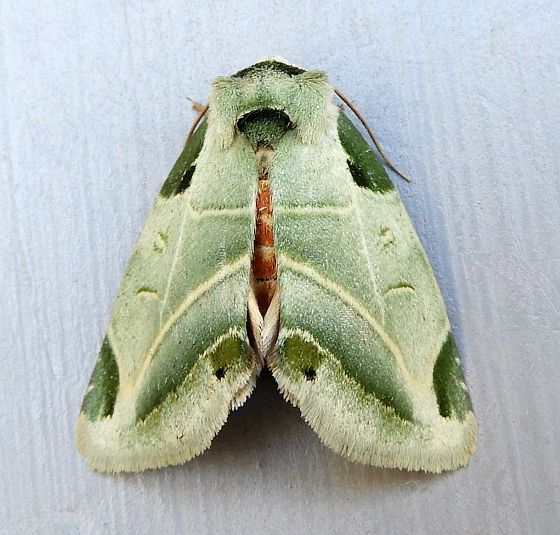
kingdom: Animalia
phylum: Arthropoda
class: Insecta
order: Lepidoptera
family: Noctuidae
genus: Heminocloa
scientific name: Heminocloa mirabilis
